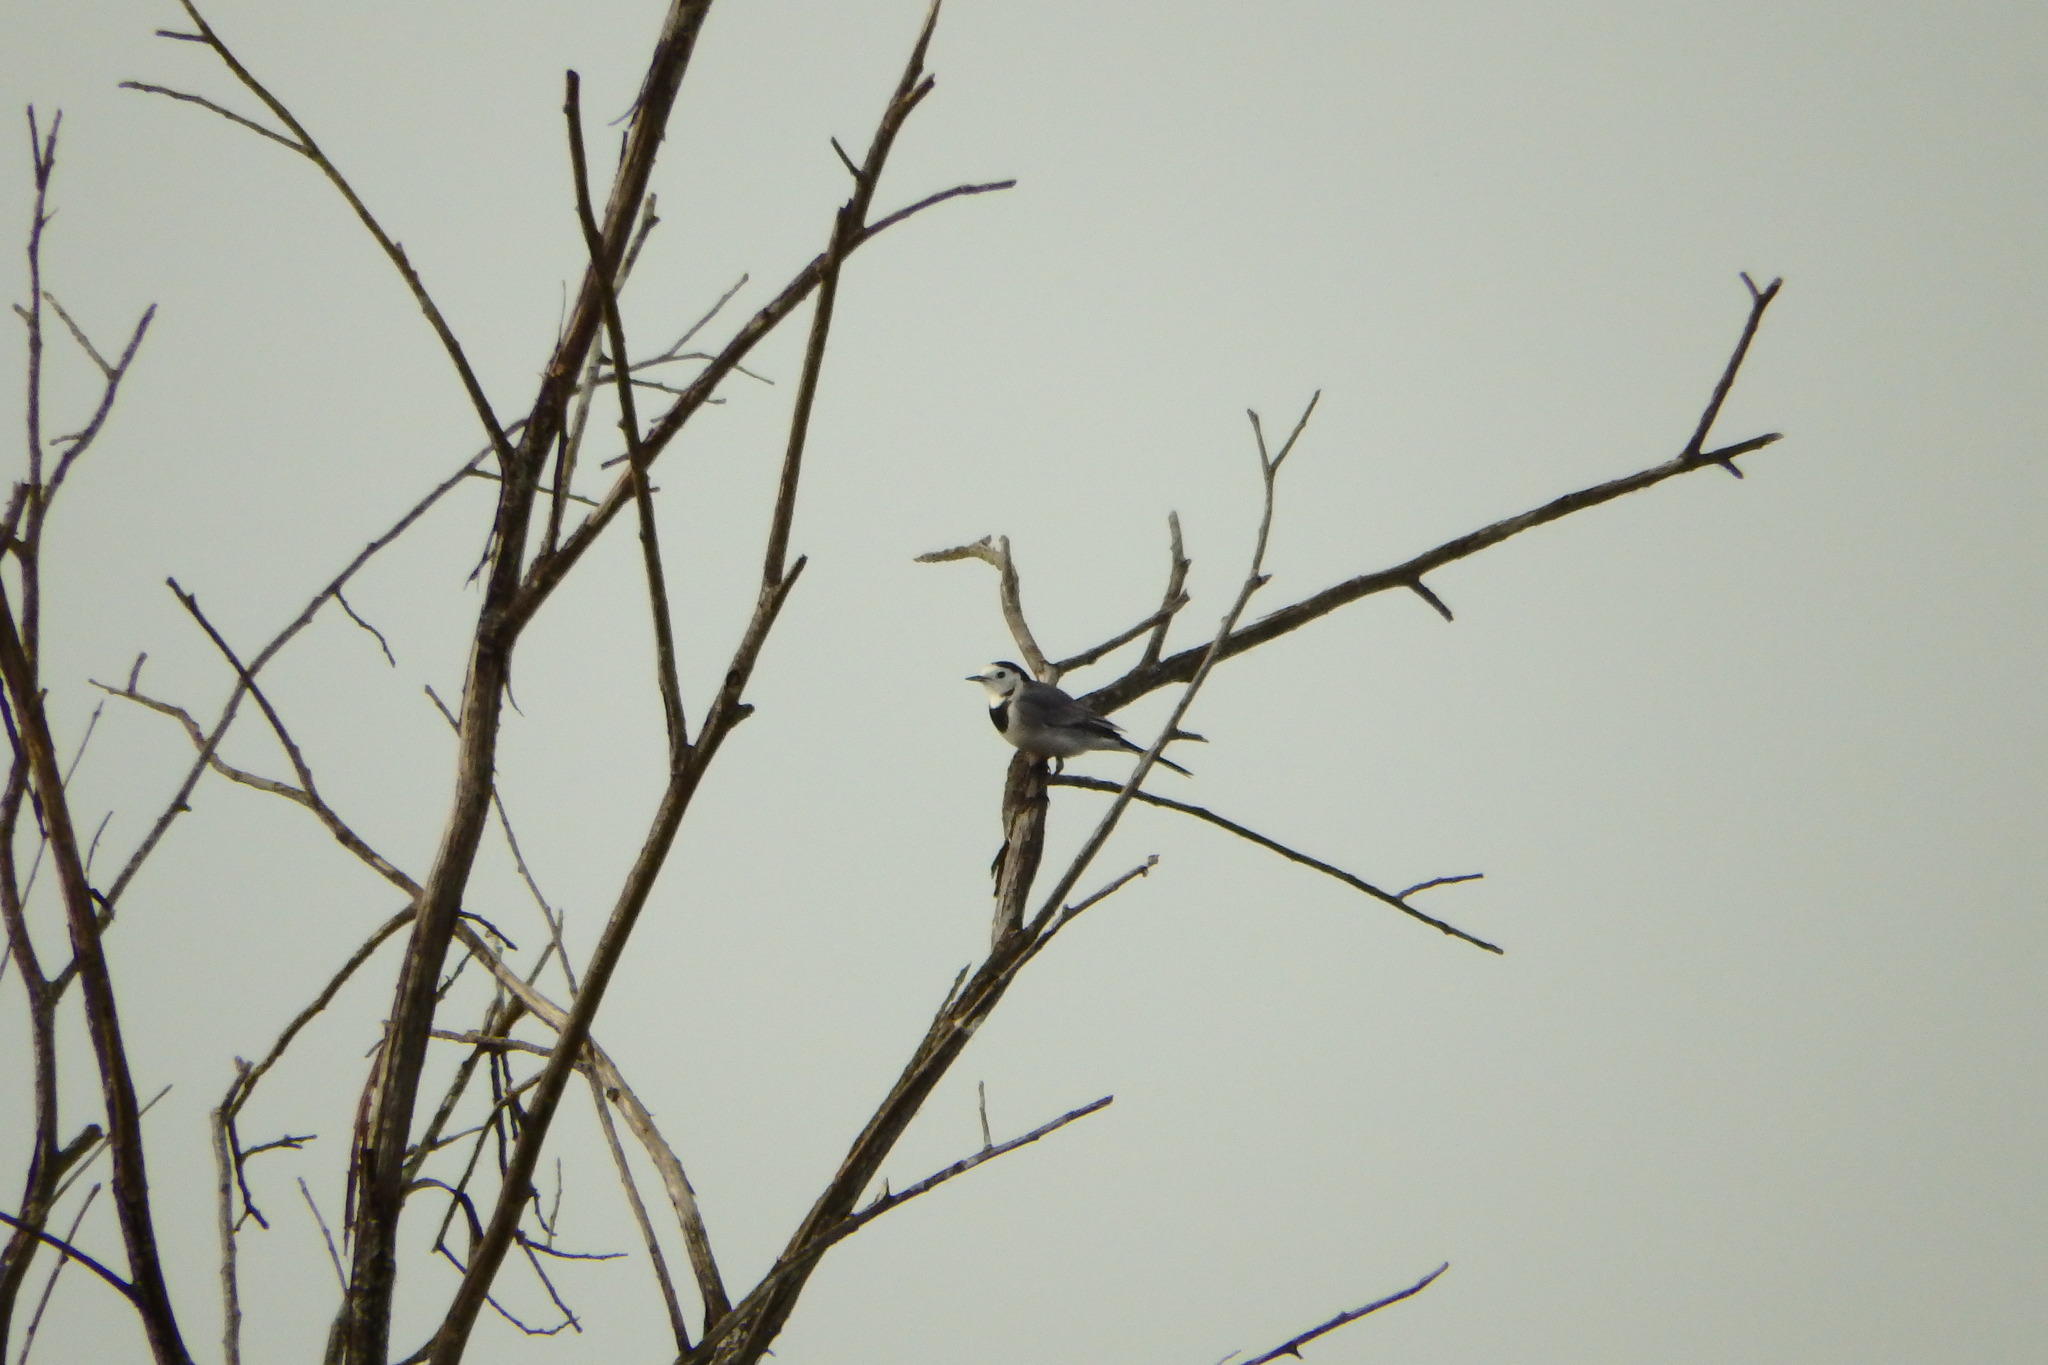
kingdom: Animalia
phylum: Chordata
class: Aves
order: Passeriformes
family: Motacillidae
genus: Motacilla
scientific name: Motacilla alba
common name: White wagtail
